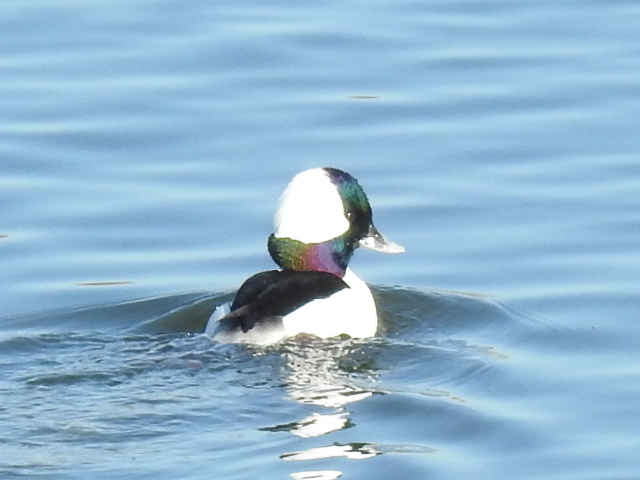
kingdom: Animalia
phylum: Chordata
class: Aves
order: Anseriformes
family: Anatidae
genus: Bucephala
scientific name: Bucephala albeola
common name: Bufflehead
